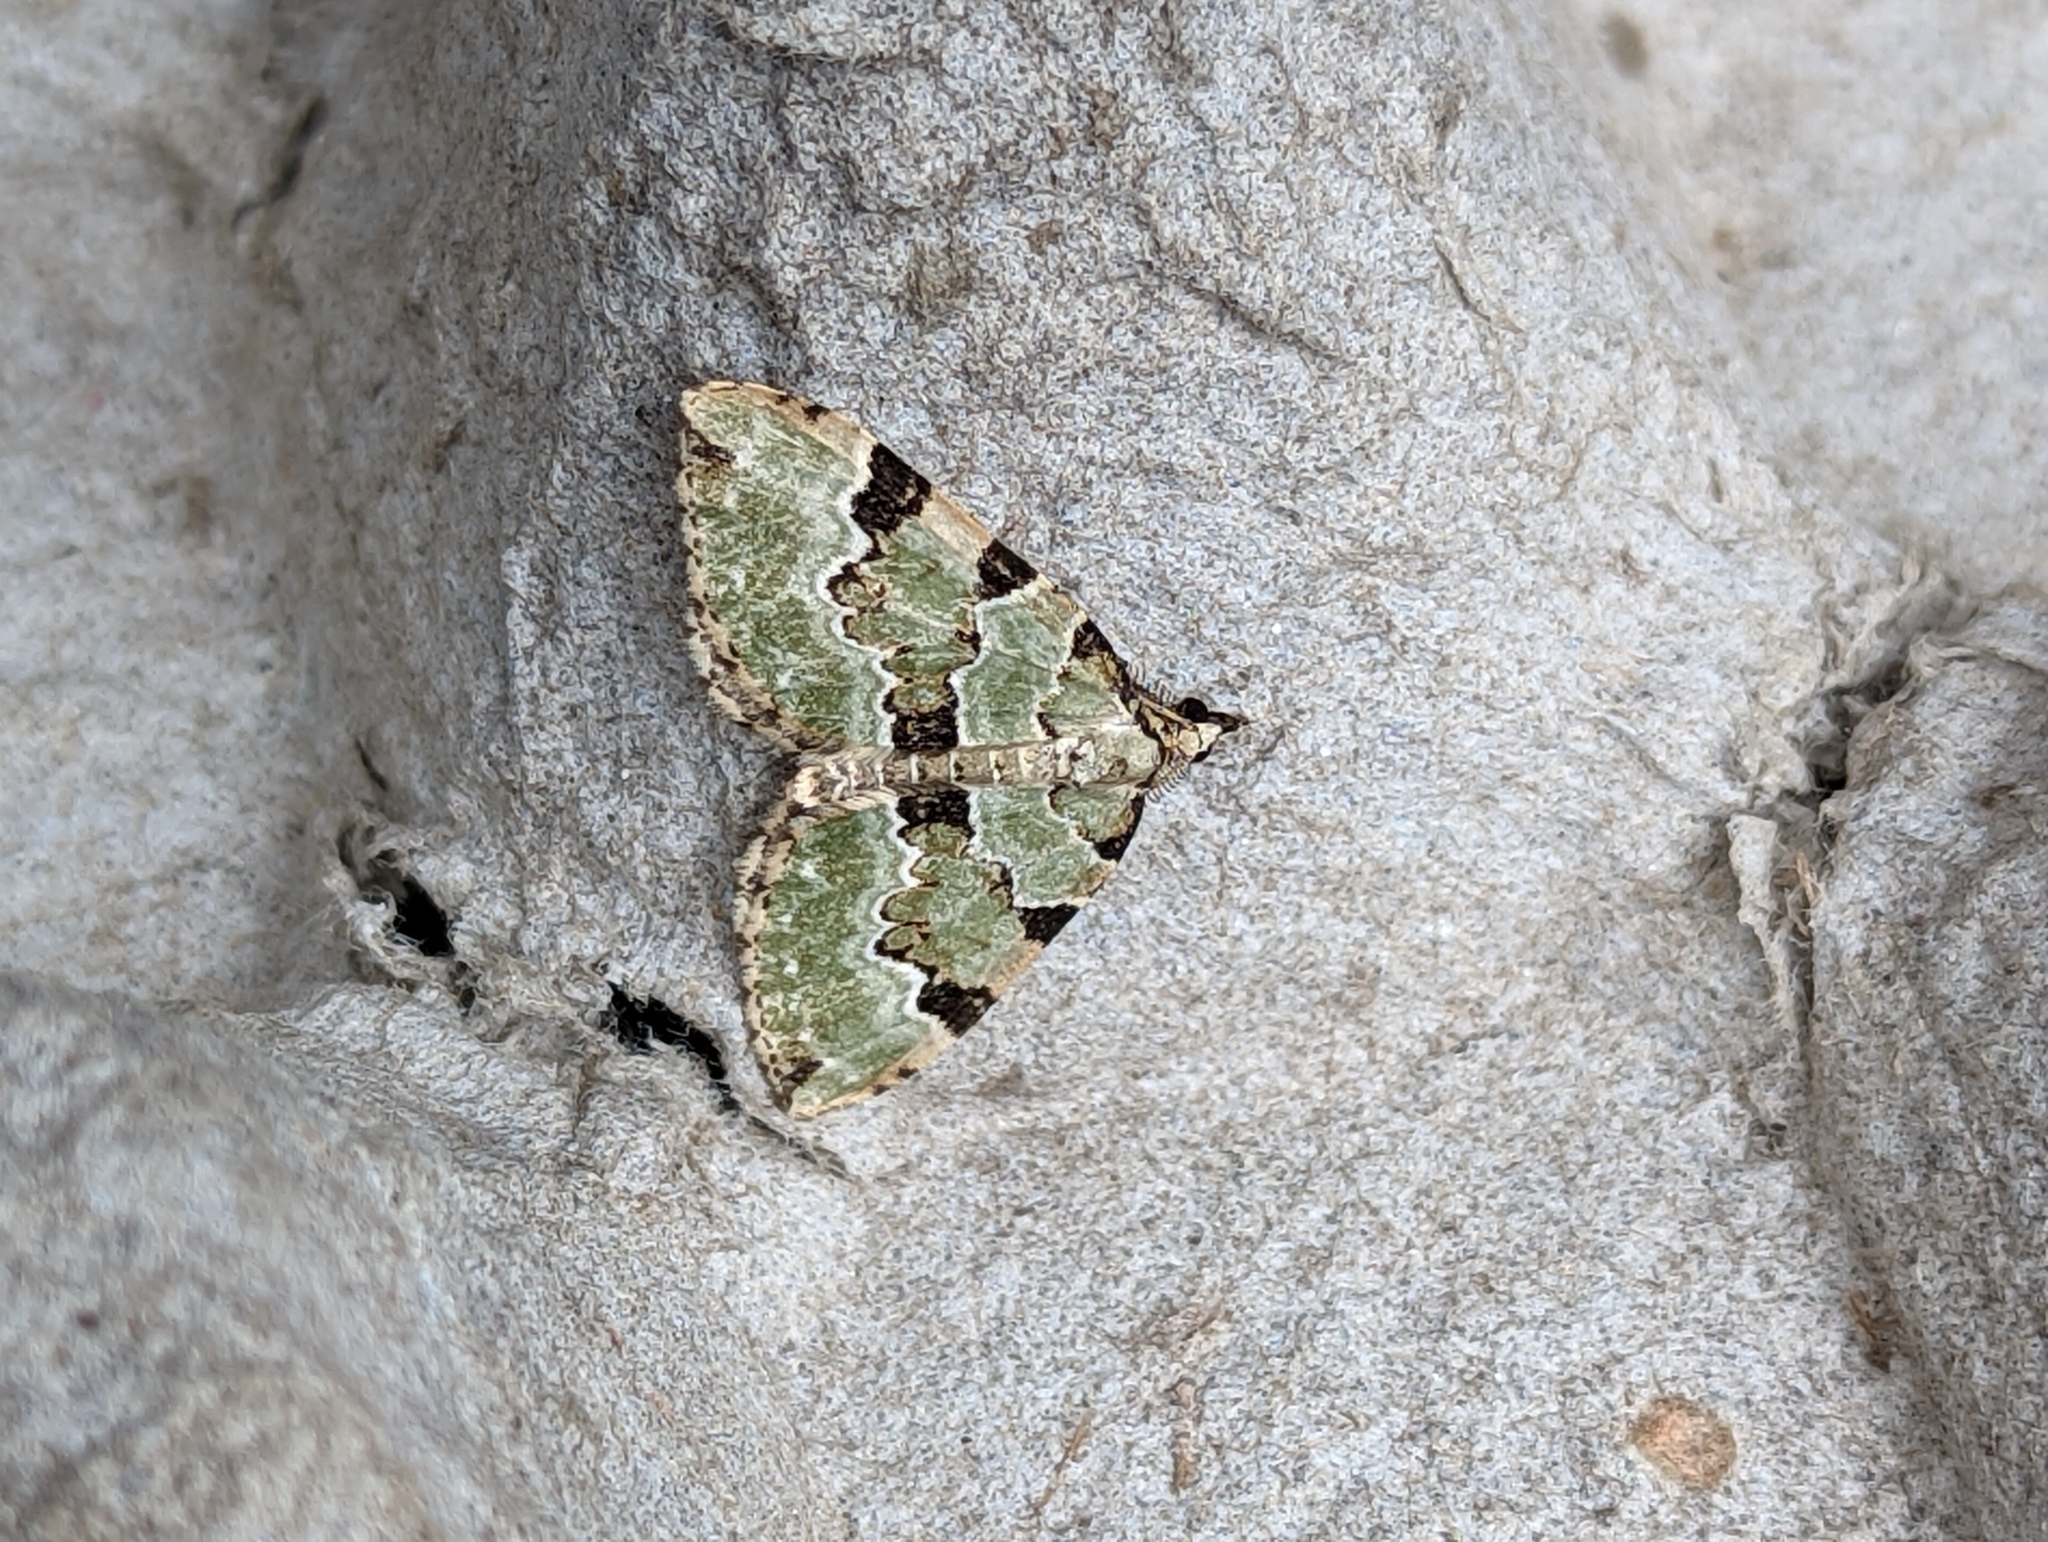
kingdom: Animalia
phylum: Arthropoda
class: Insecta
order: Lepidoptera
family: Geometridae
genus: Colostygia
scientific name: Colostygia pectinataria
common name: Green carpet
